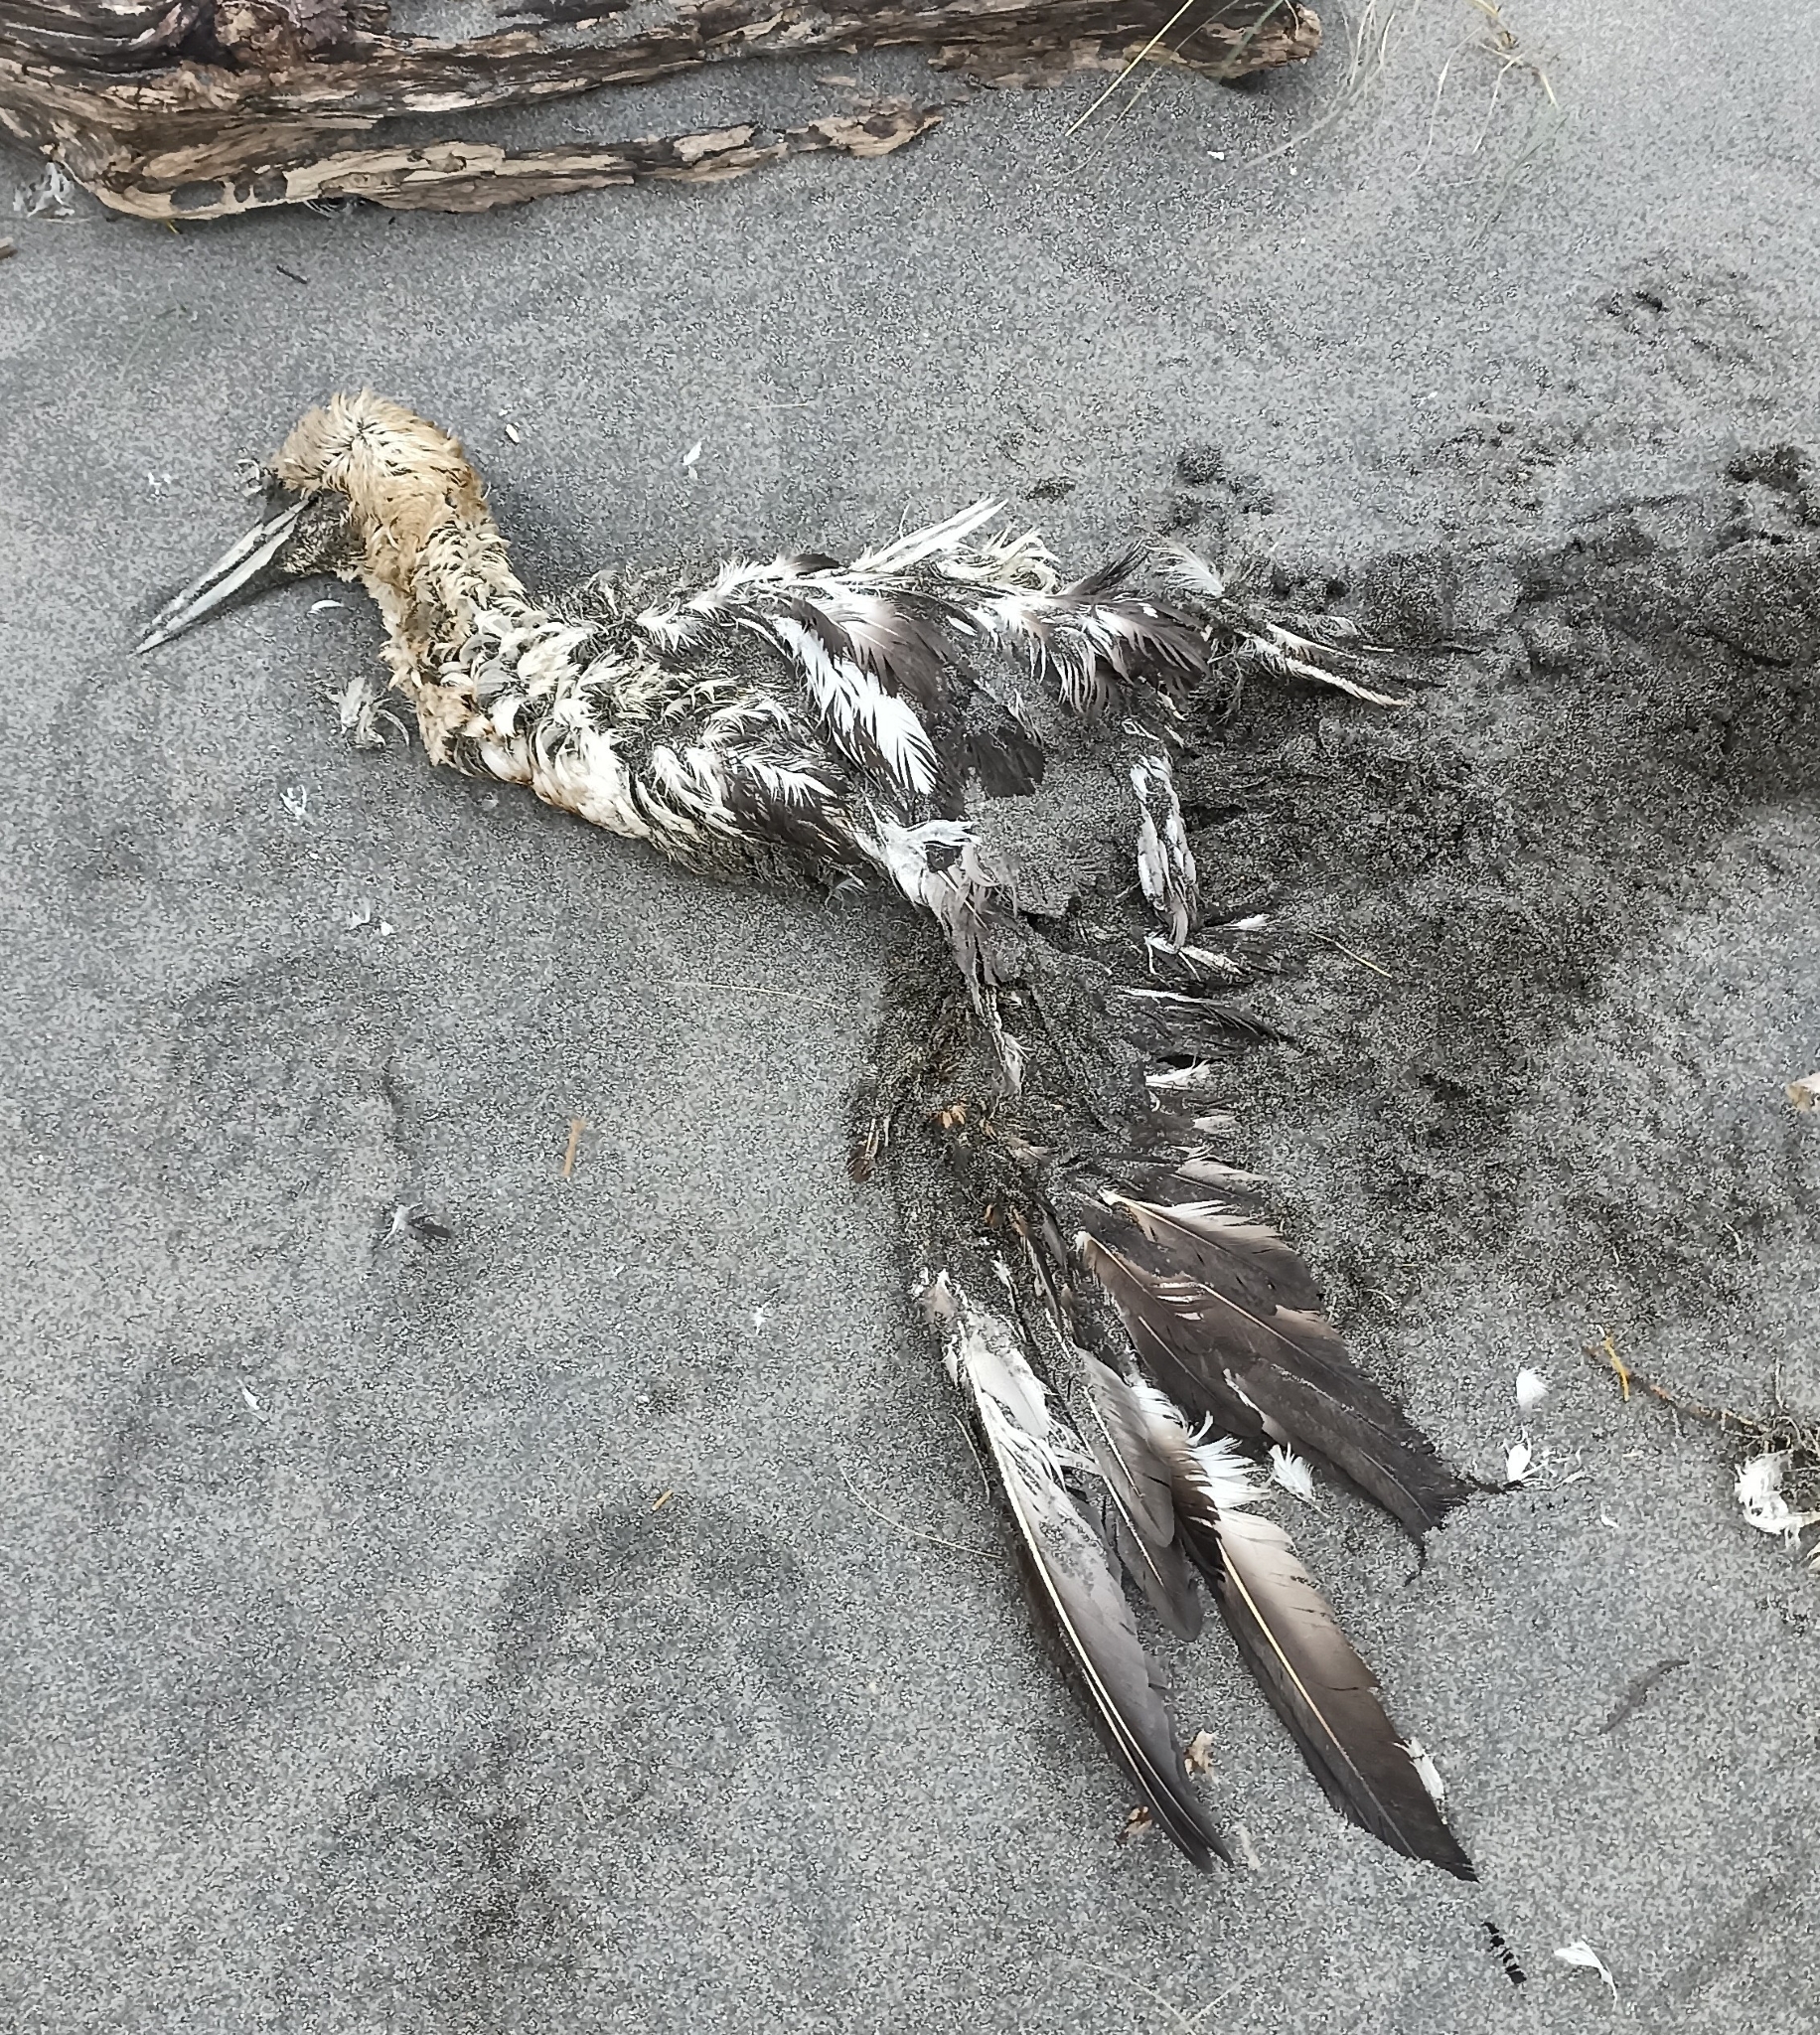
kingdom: Animalia
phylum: Chordata
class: Aves
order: Suliformes
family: Sulidae
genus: Morus
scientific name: Morus bassanus
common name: Northern gannet
